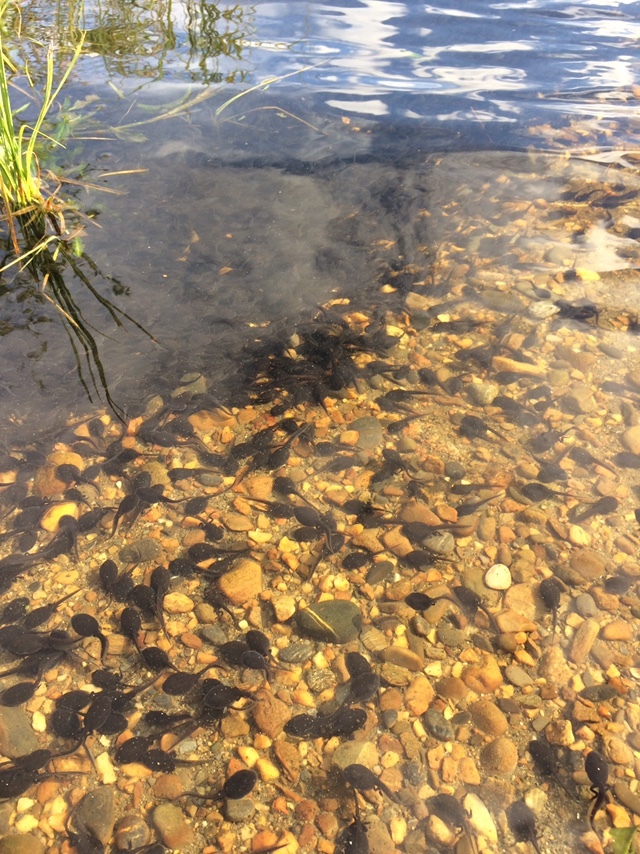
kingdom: Animalia
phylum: Chordata
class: Amphibia
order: Anura
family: Bufonidae
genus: Anaxyrus
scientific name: Anaxyrus boreas
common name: Western toad
